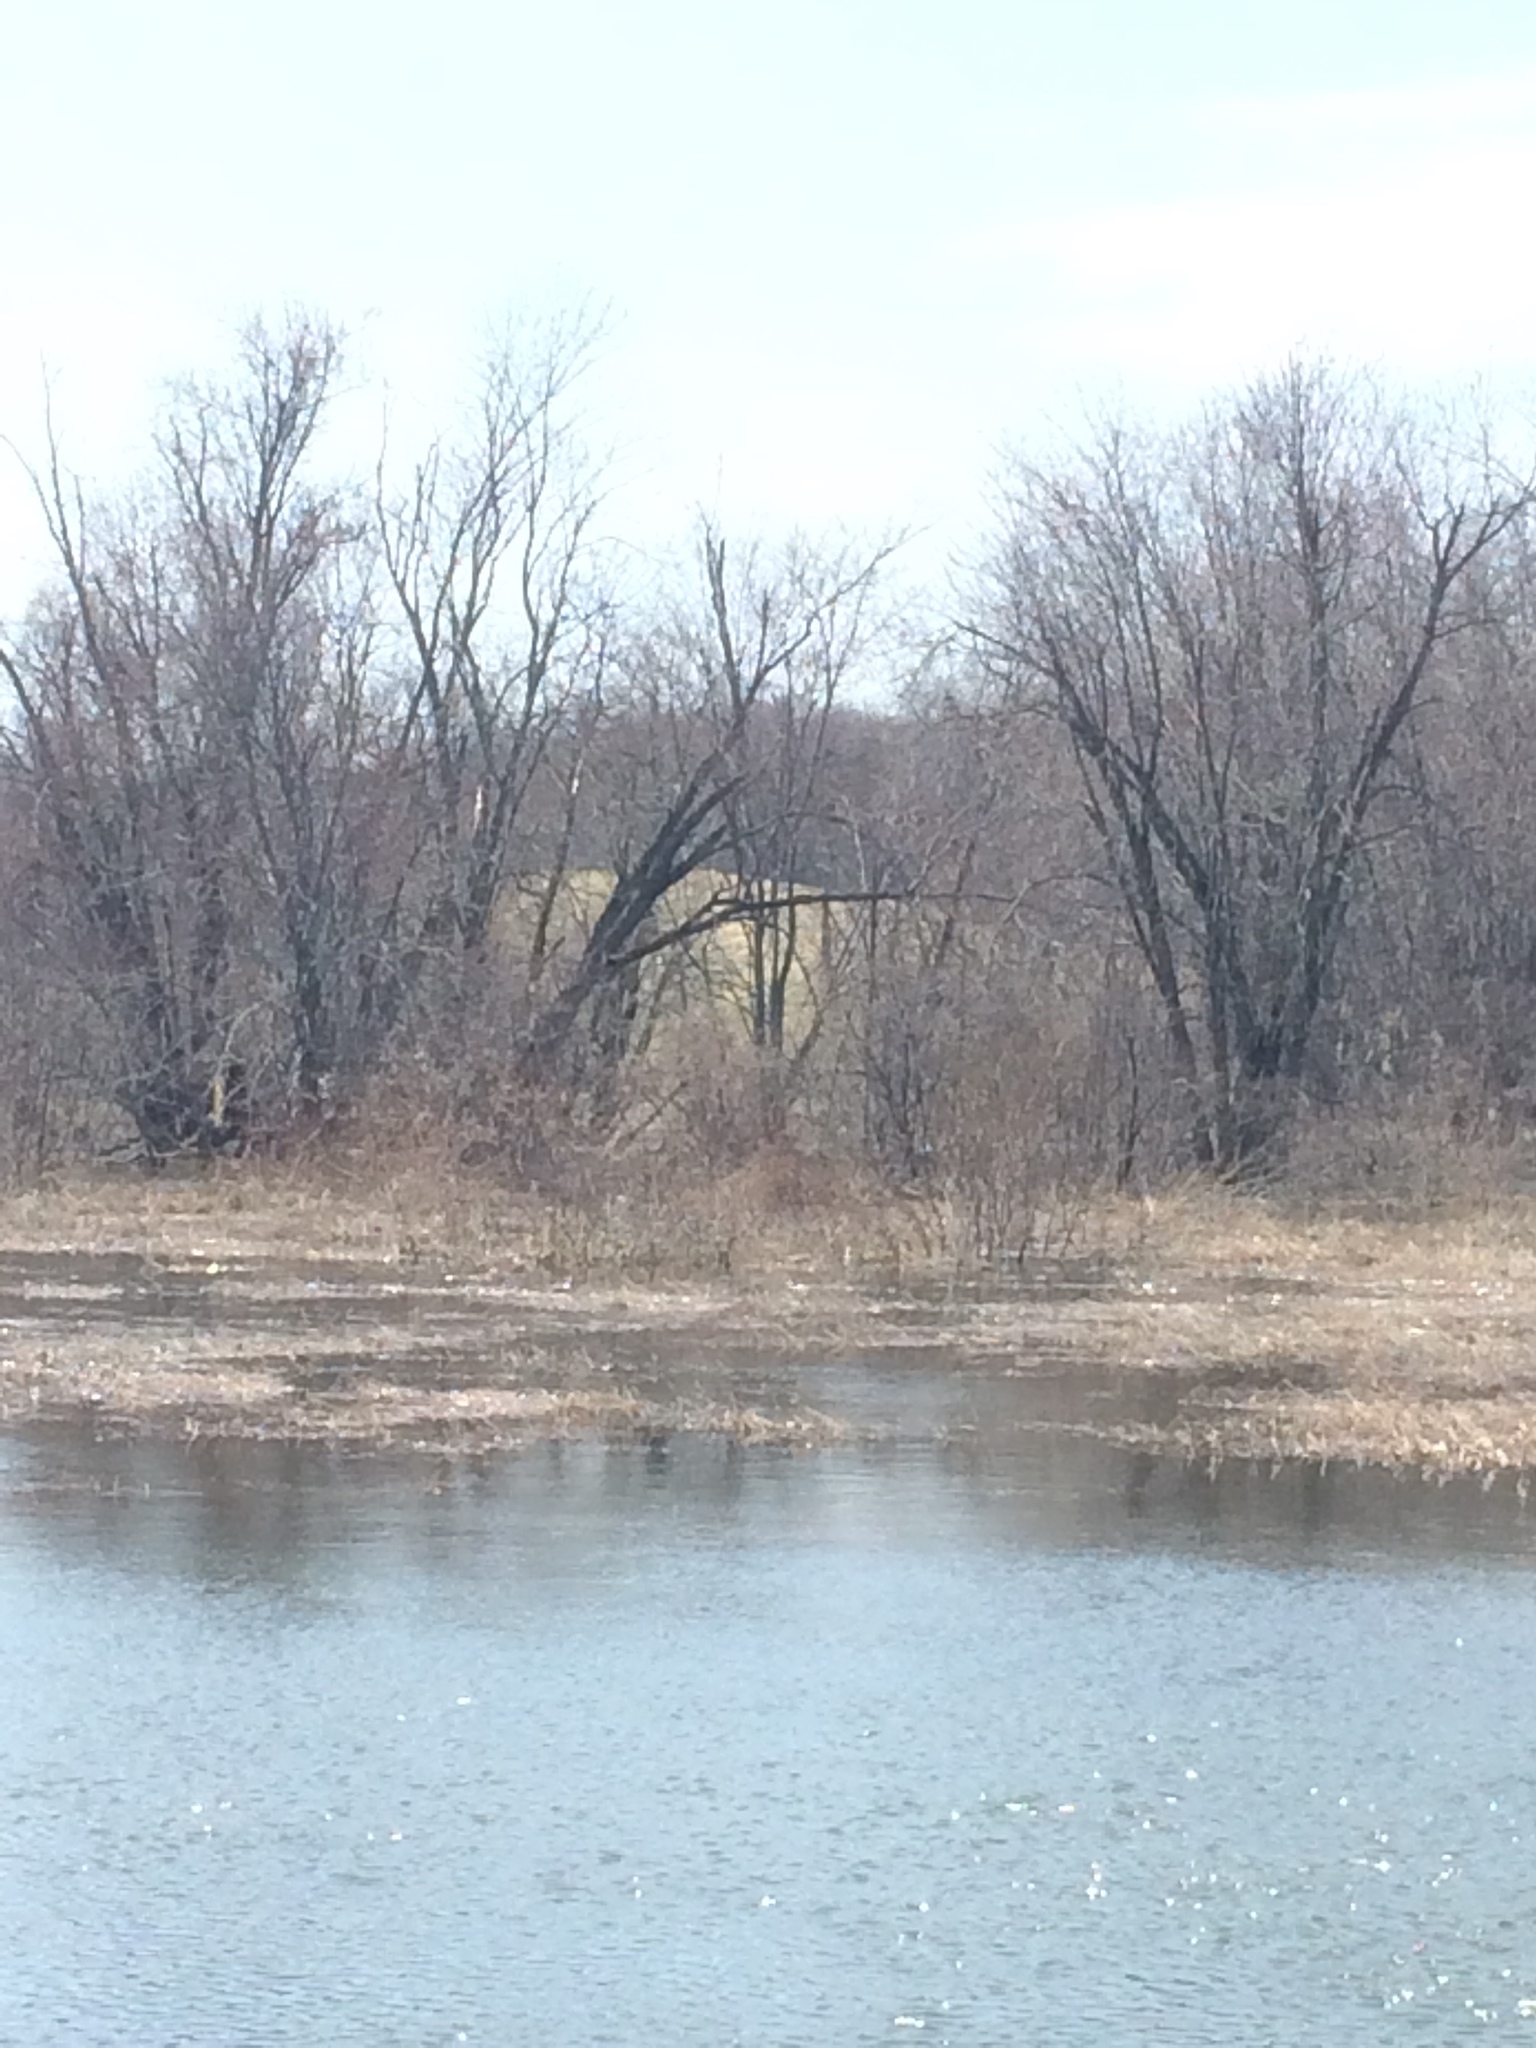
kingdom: Plantae
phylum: Tracheophyta
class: Magnoliopsida
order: Sapindales
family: Sapindaceae
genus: Acer
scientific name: Acer saccharinum
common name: Silver maple
